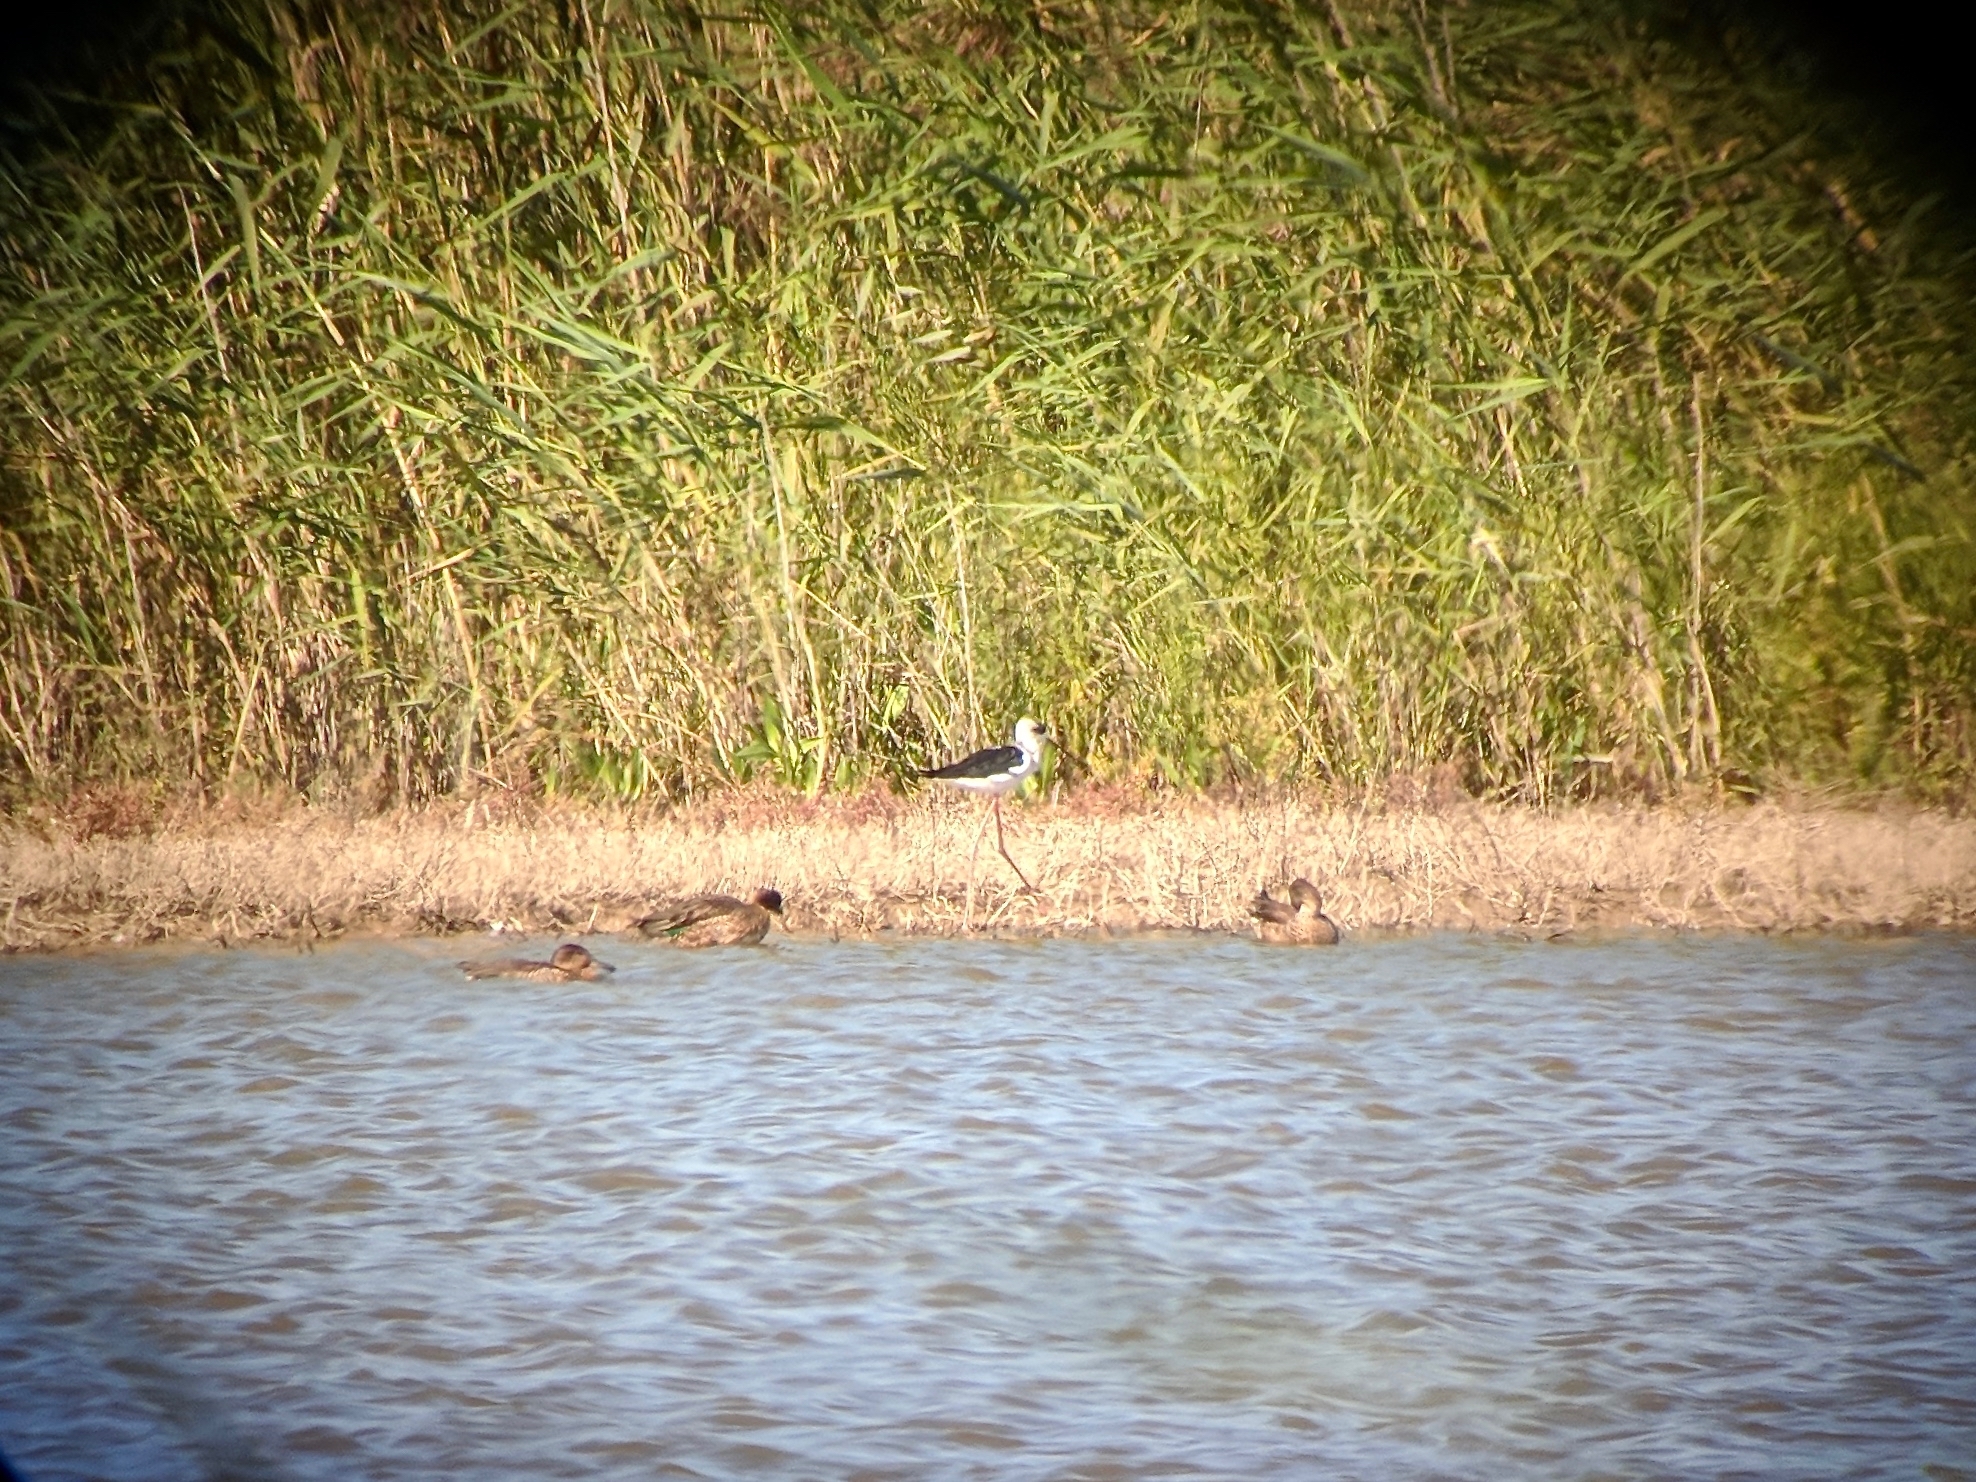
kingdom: Animalia
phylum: Chordata
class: Aves
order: Charadriiformes
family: Recurvirostridae
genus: Himantopus
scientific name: Himantopus himantopus
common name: Black-winged stilt
